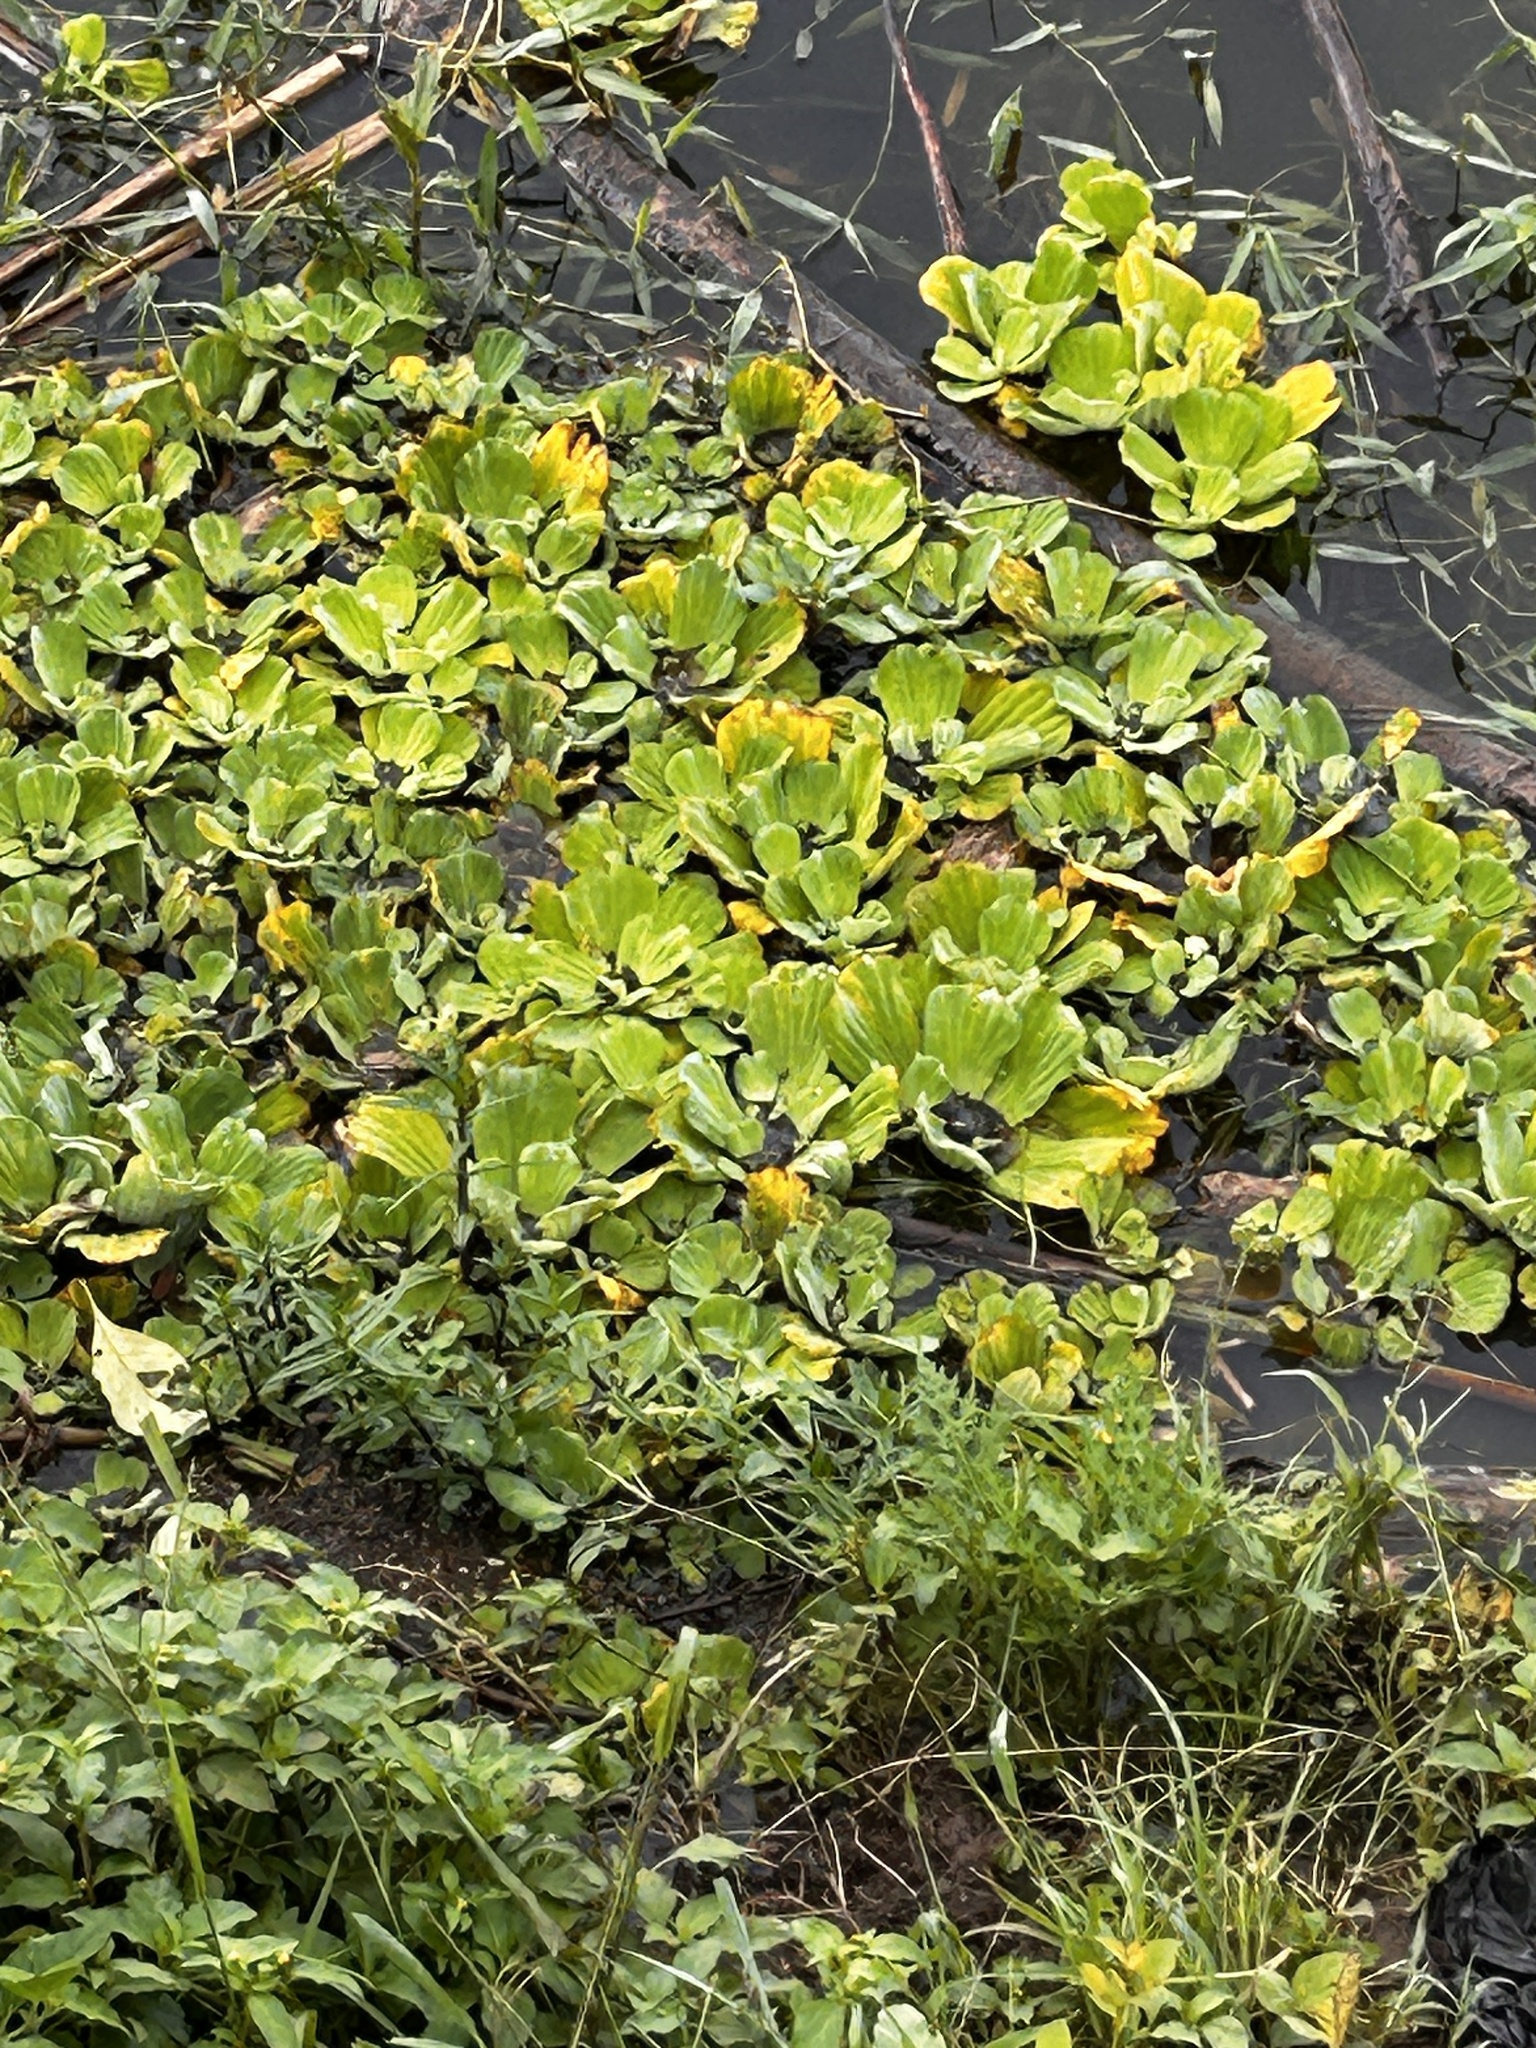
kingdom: Plantae
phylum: Tracheophyta
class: Liliopsida
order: Alismatales
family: Araceae
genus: Pistia
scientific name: Pistia stratiotes
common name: Water lettuce
